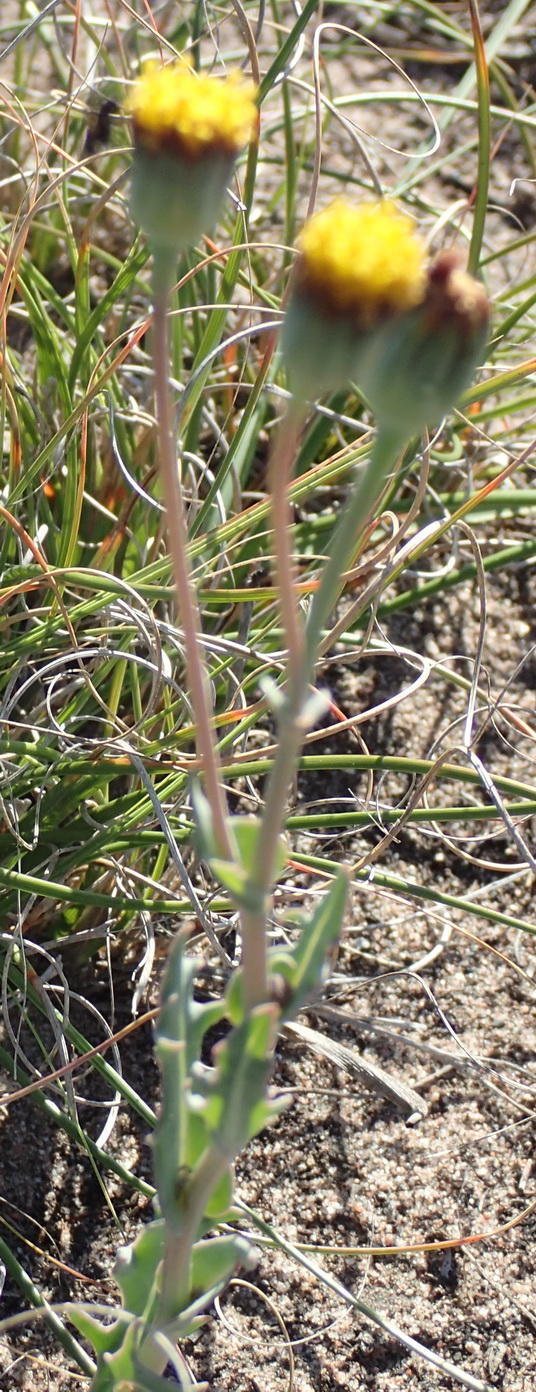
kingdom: Plantae
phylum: Tracheophyta
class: Magnoliopsida
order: Asterales
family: Asteraceae
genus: Othonna
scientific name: Othonna digitata
